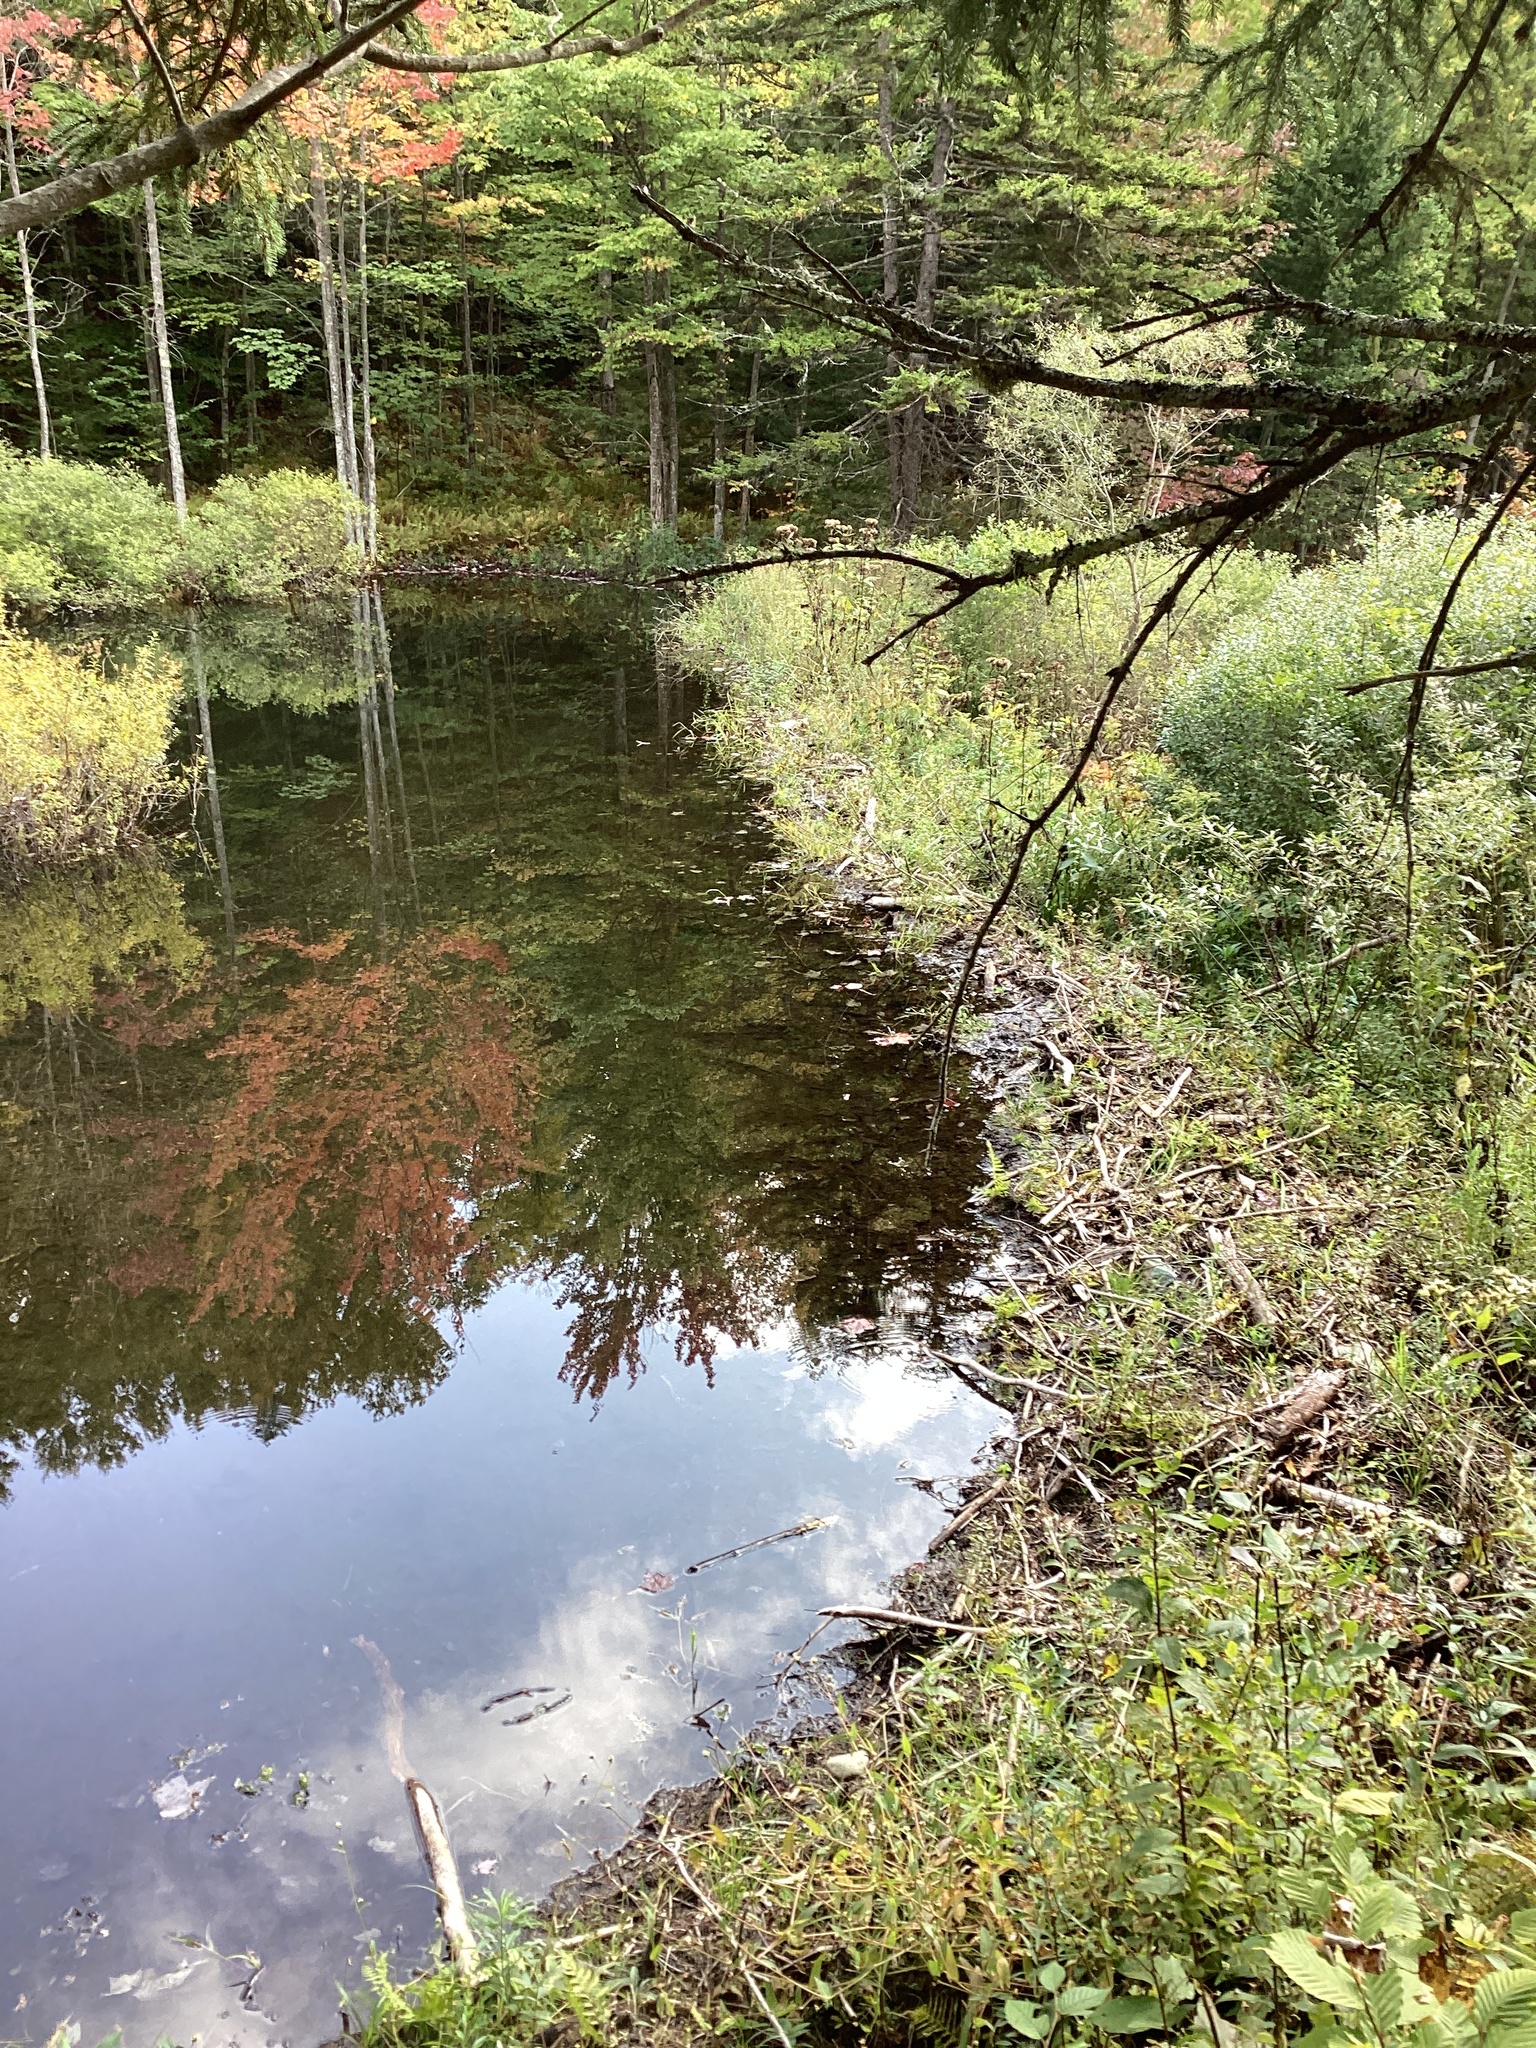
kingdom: Animalia
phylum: Chordata
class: Mammalia
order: Rodentia
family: Castoridae
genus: Castor
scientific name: Castor canadensis
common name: American beaver
